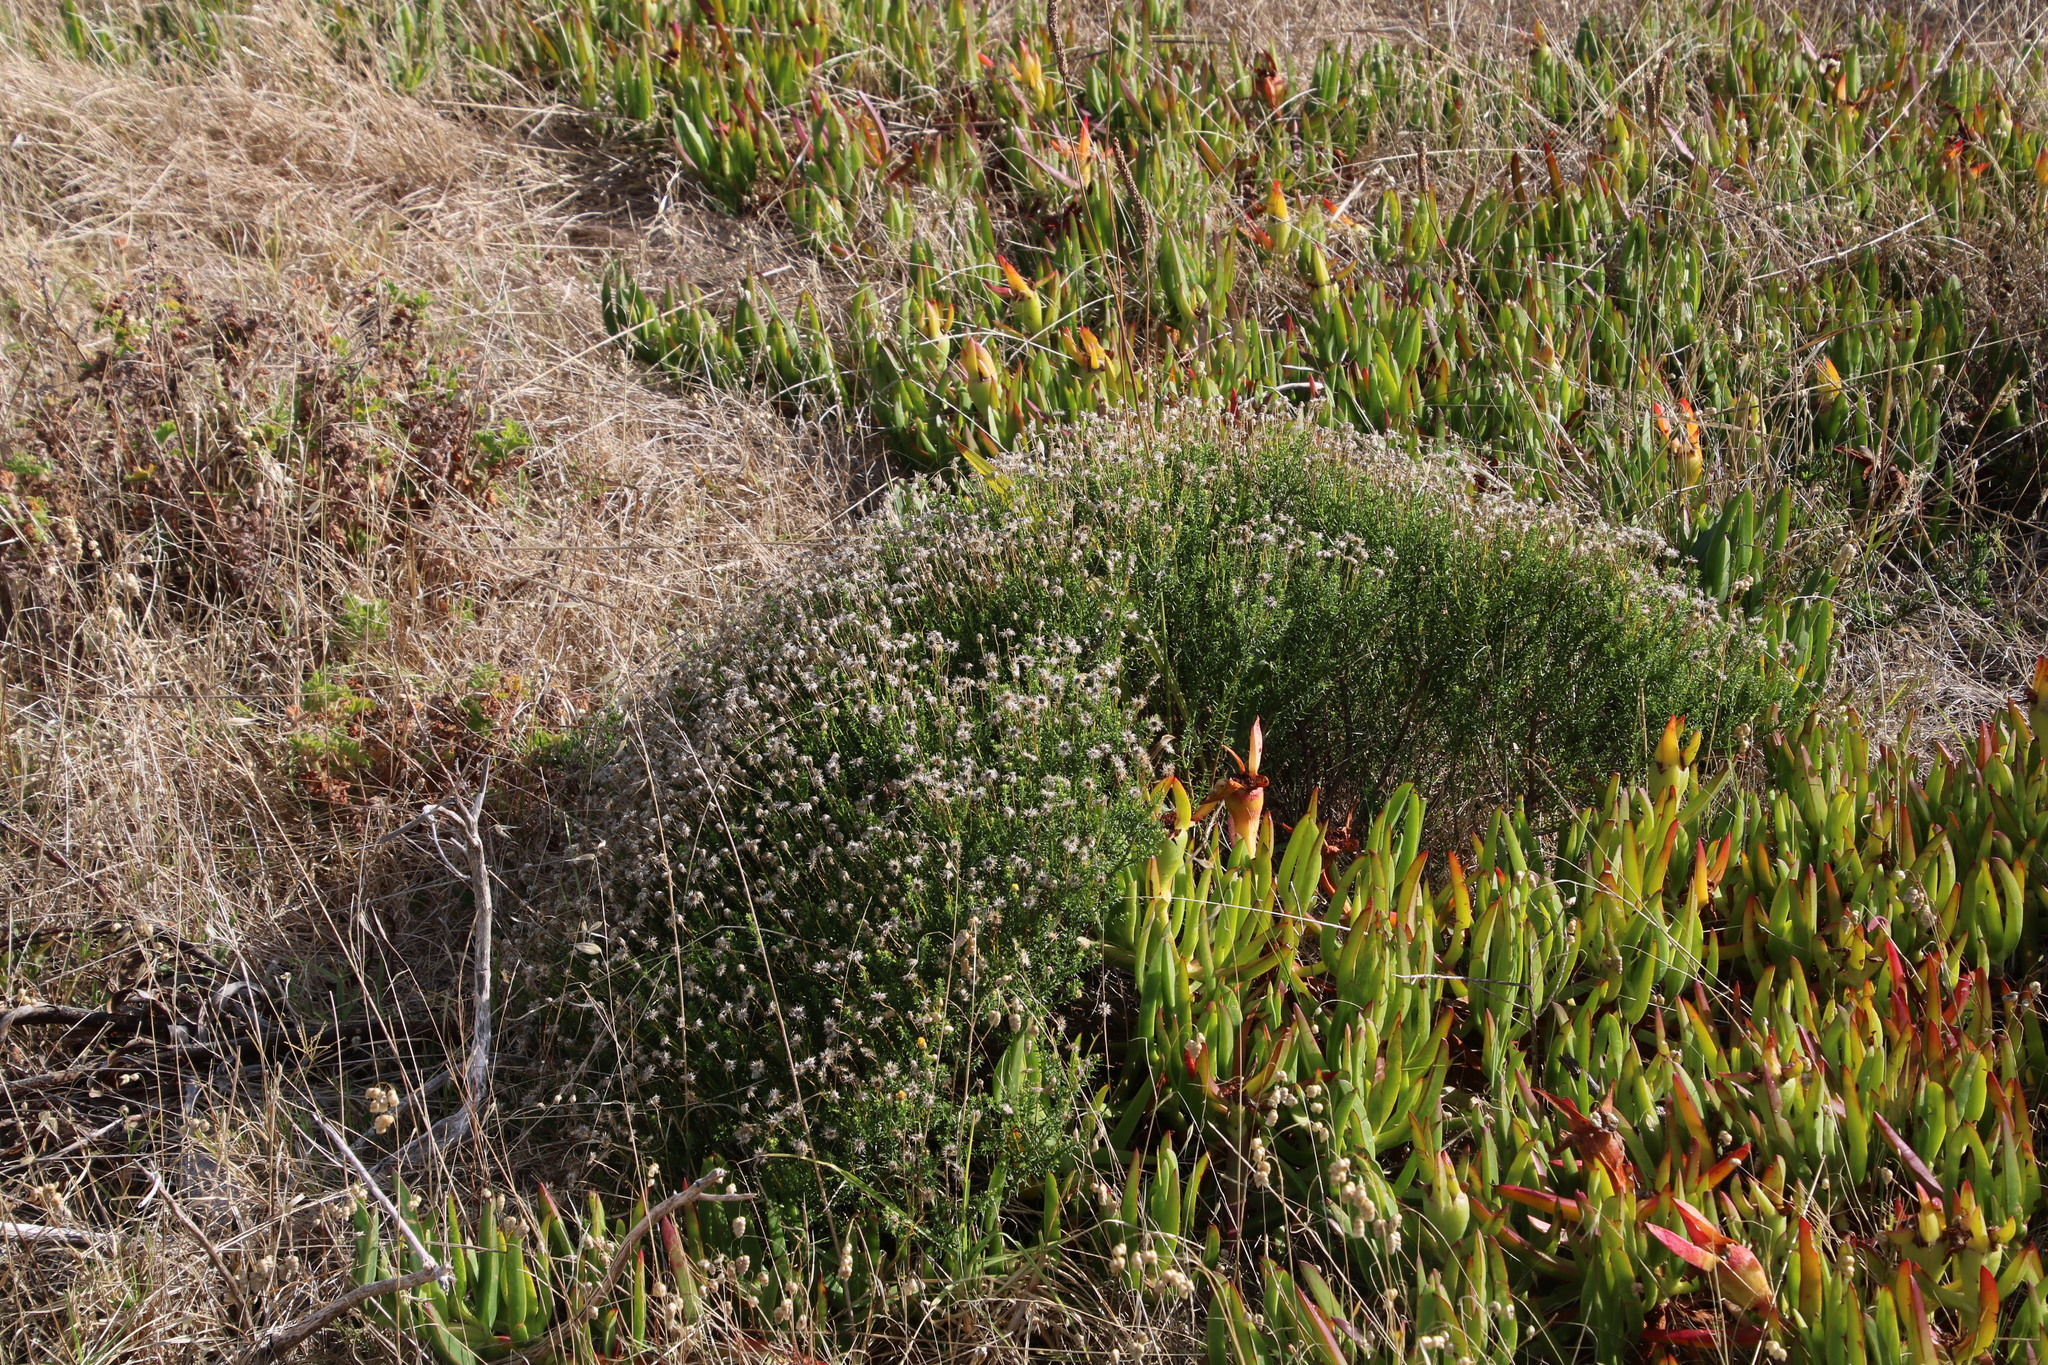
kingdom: Plantae
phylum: Tracheophyta
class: Magnoliopsida
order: Asterales
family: Asteraceae
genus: Chrysocoma
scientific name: Chrysocoma cernua
